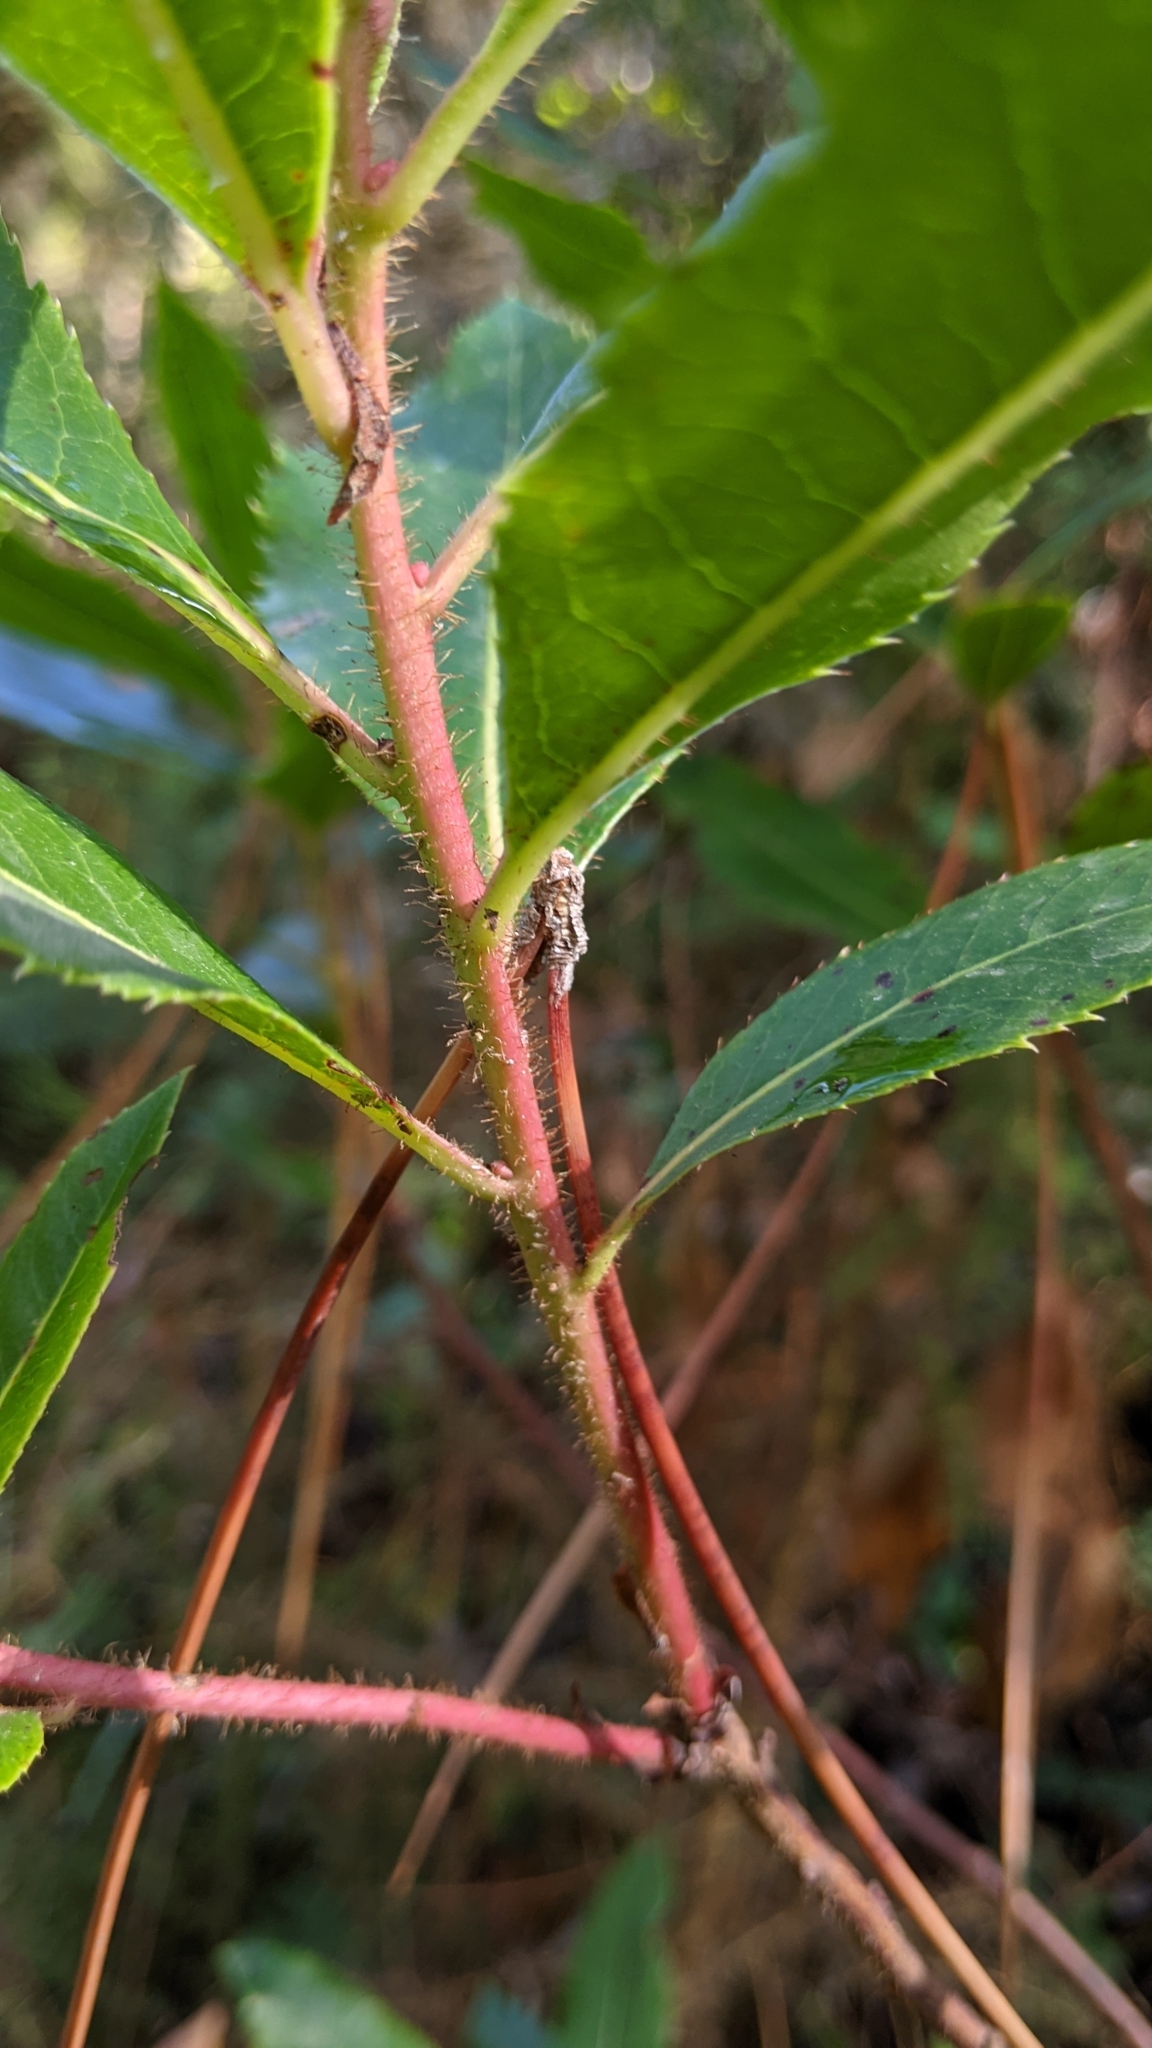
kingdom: Plantae
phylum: Tracheophyta
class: Magnoliopsida
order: Ericales
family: Ericaceae
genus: Arbutus
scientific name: Arbutus unedo
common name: Strawberry-tree
